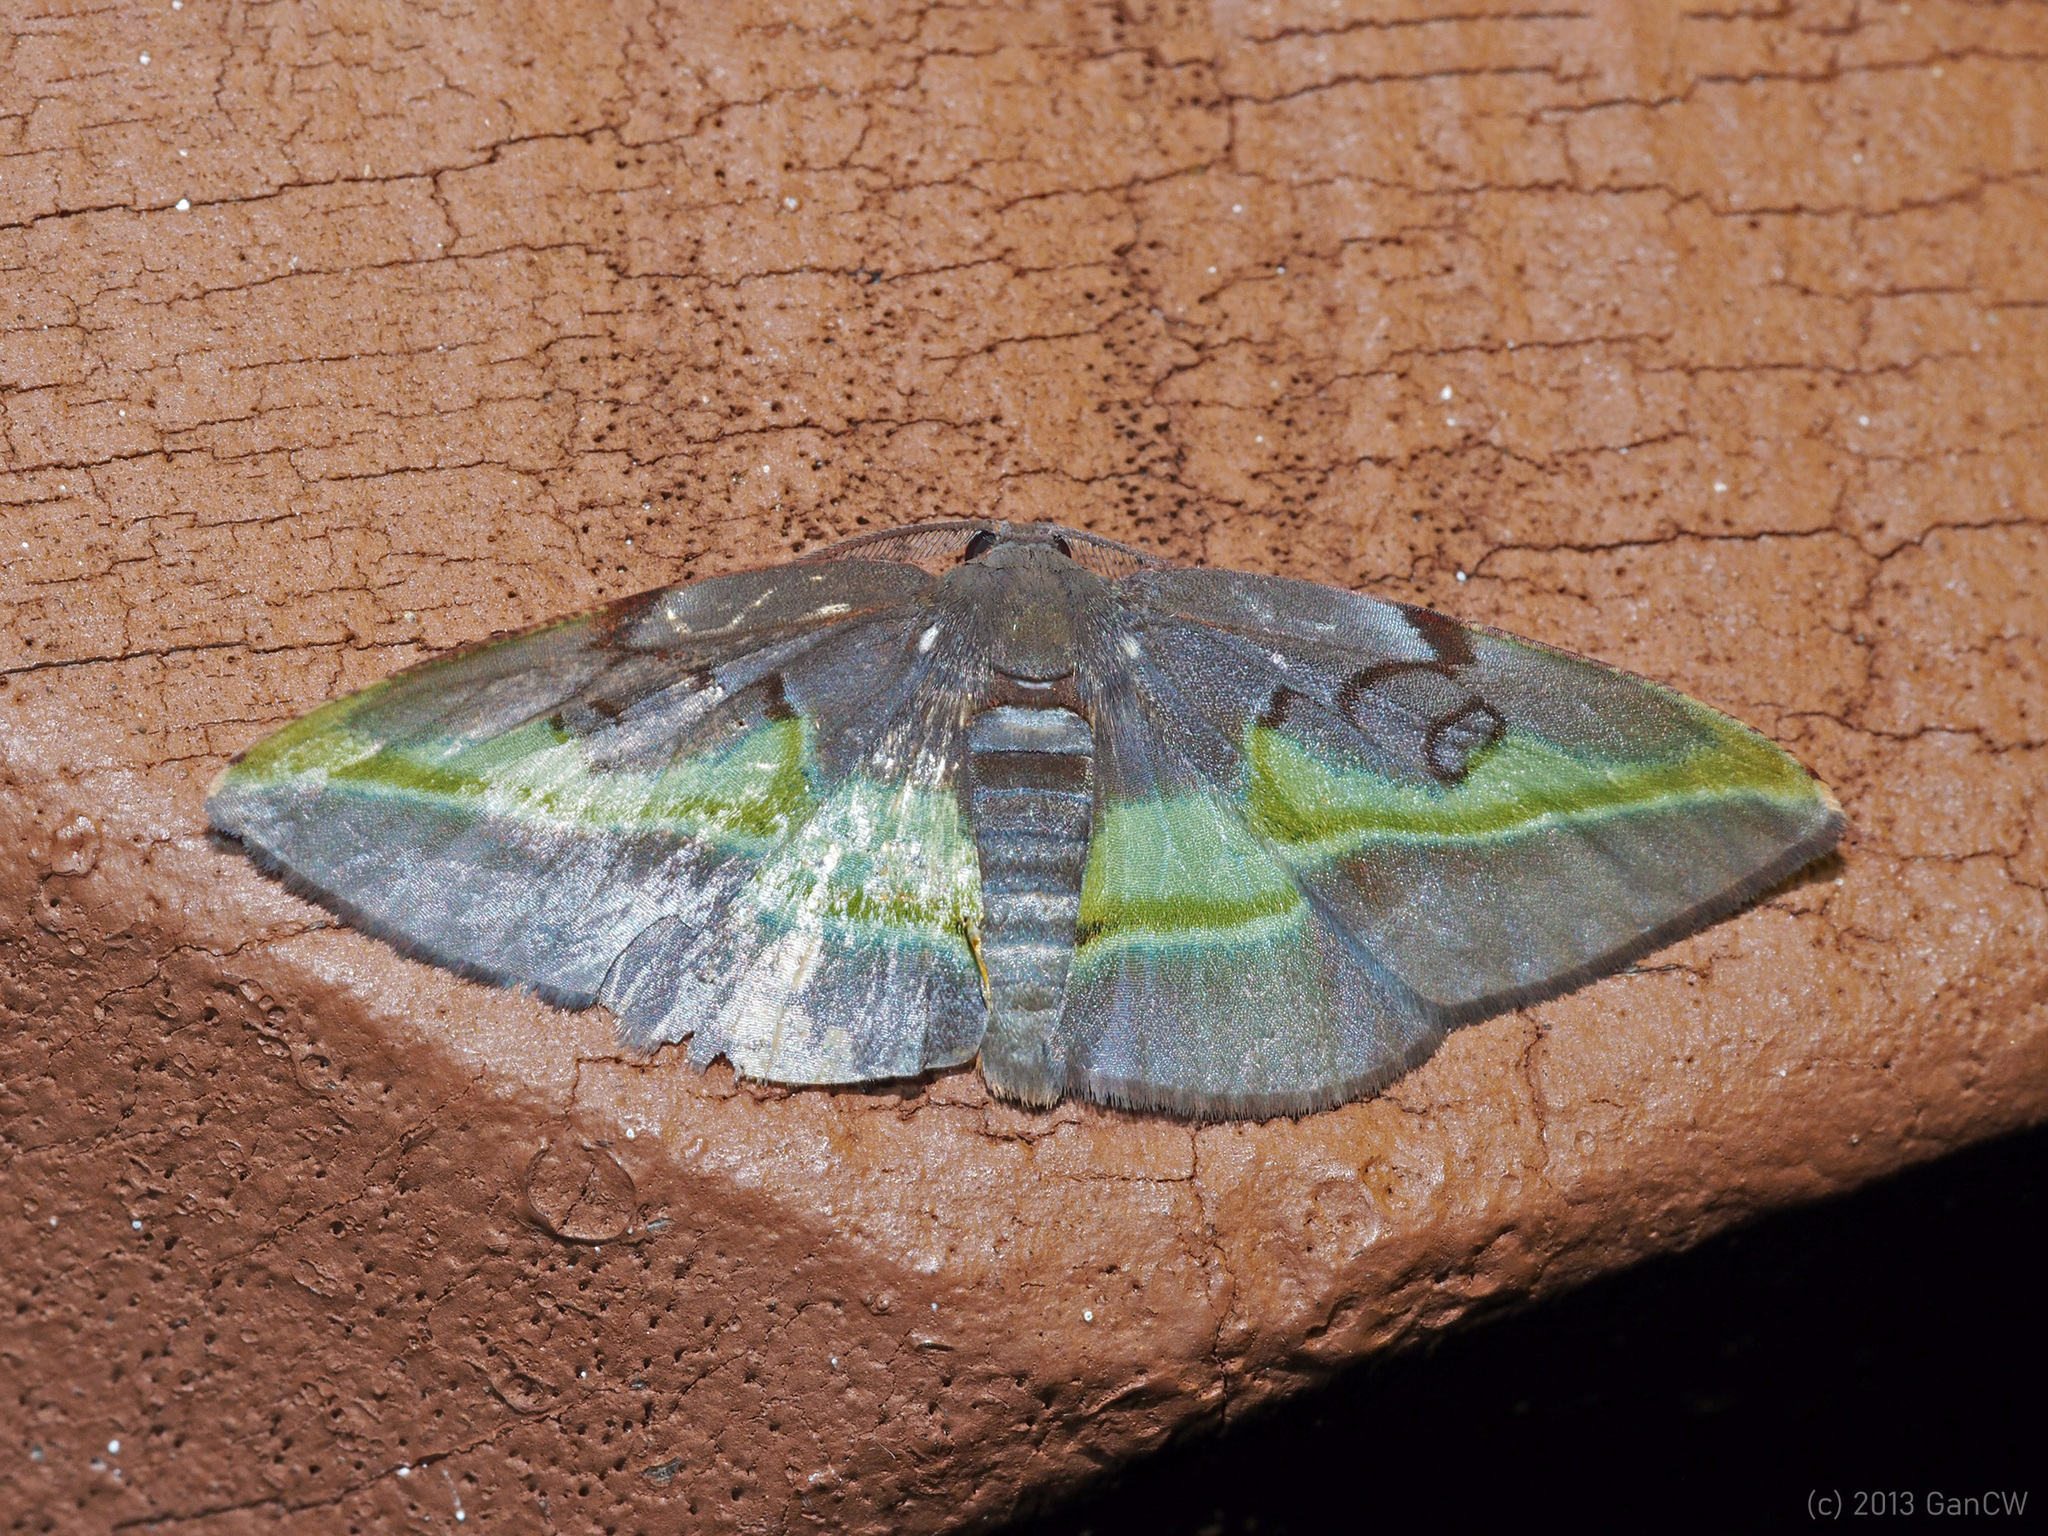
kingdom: Animalia
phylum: Arthropoda
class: Insecta
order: Lepidoptera
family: Geometridae
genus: Hypochrosis
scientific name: Hypochrosis cryptopyrrhata
